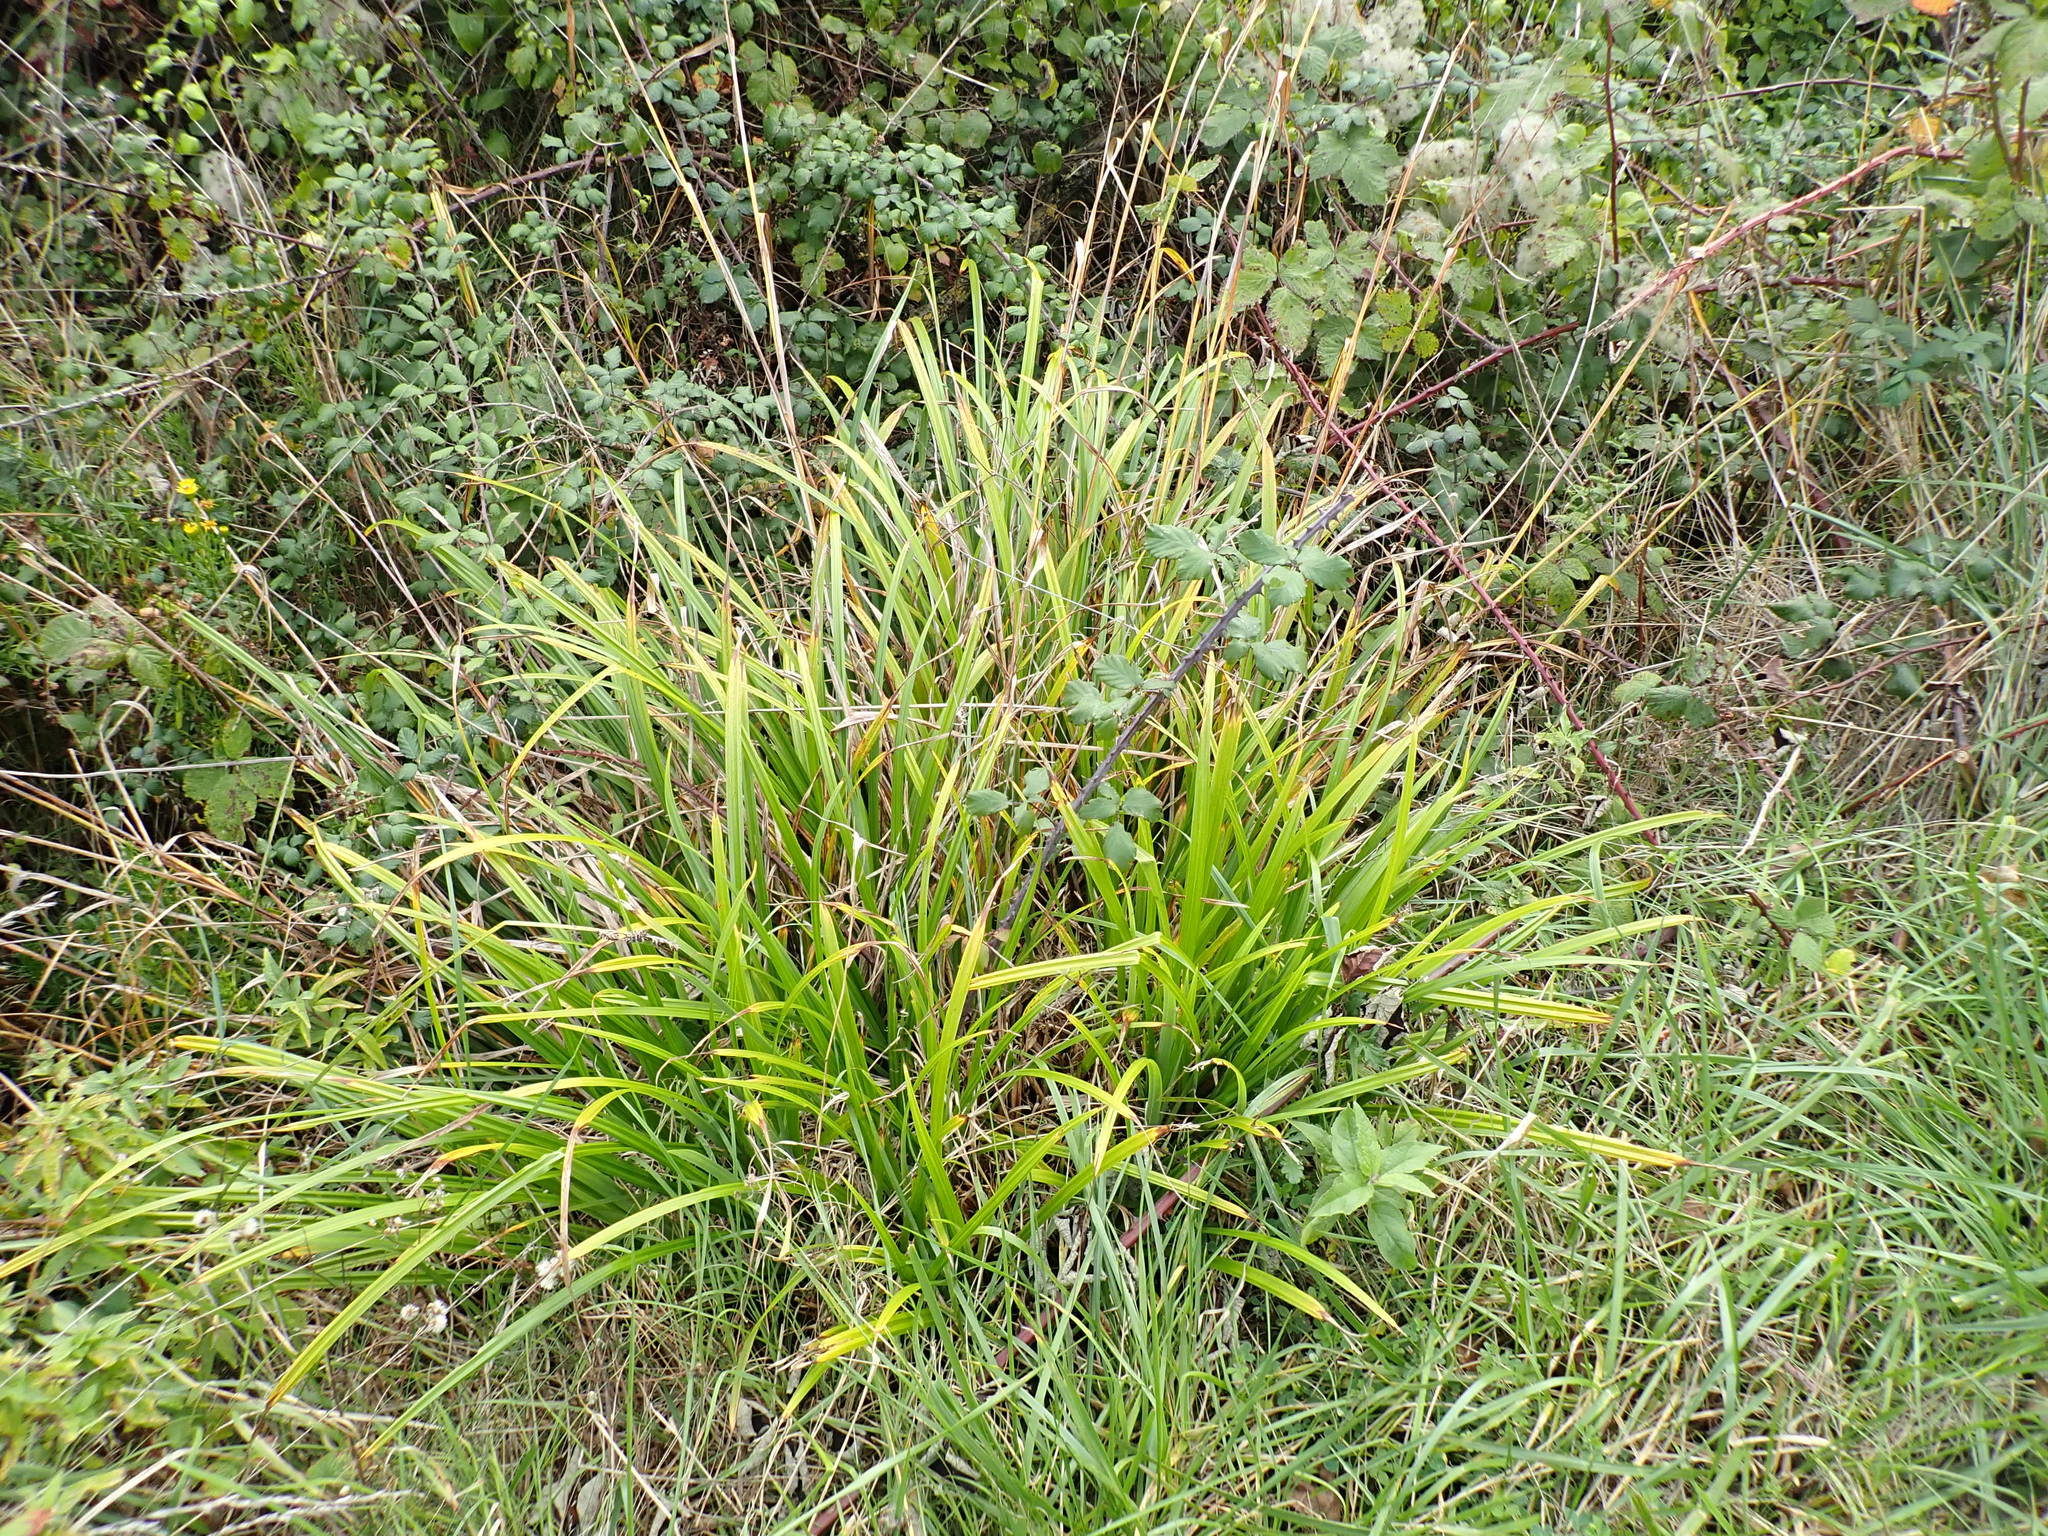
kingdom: Plantae
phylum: Tracheophyta
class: Liliopsida
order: Poales
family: Cyperaceae
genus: Carex
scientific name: Carex pendula
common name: Pendulous sedge
